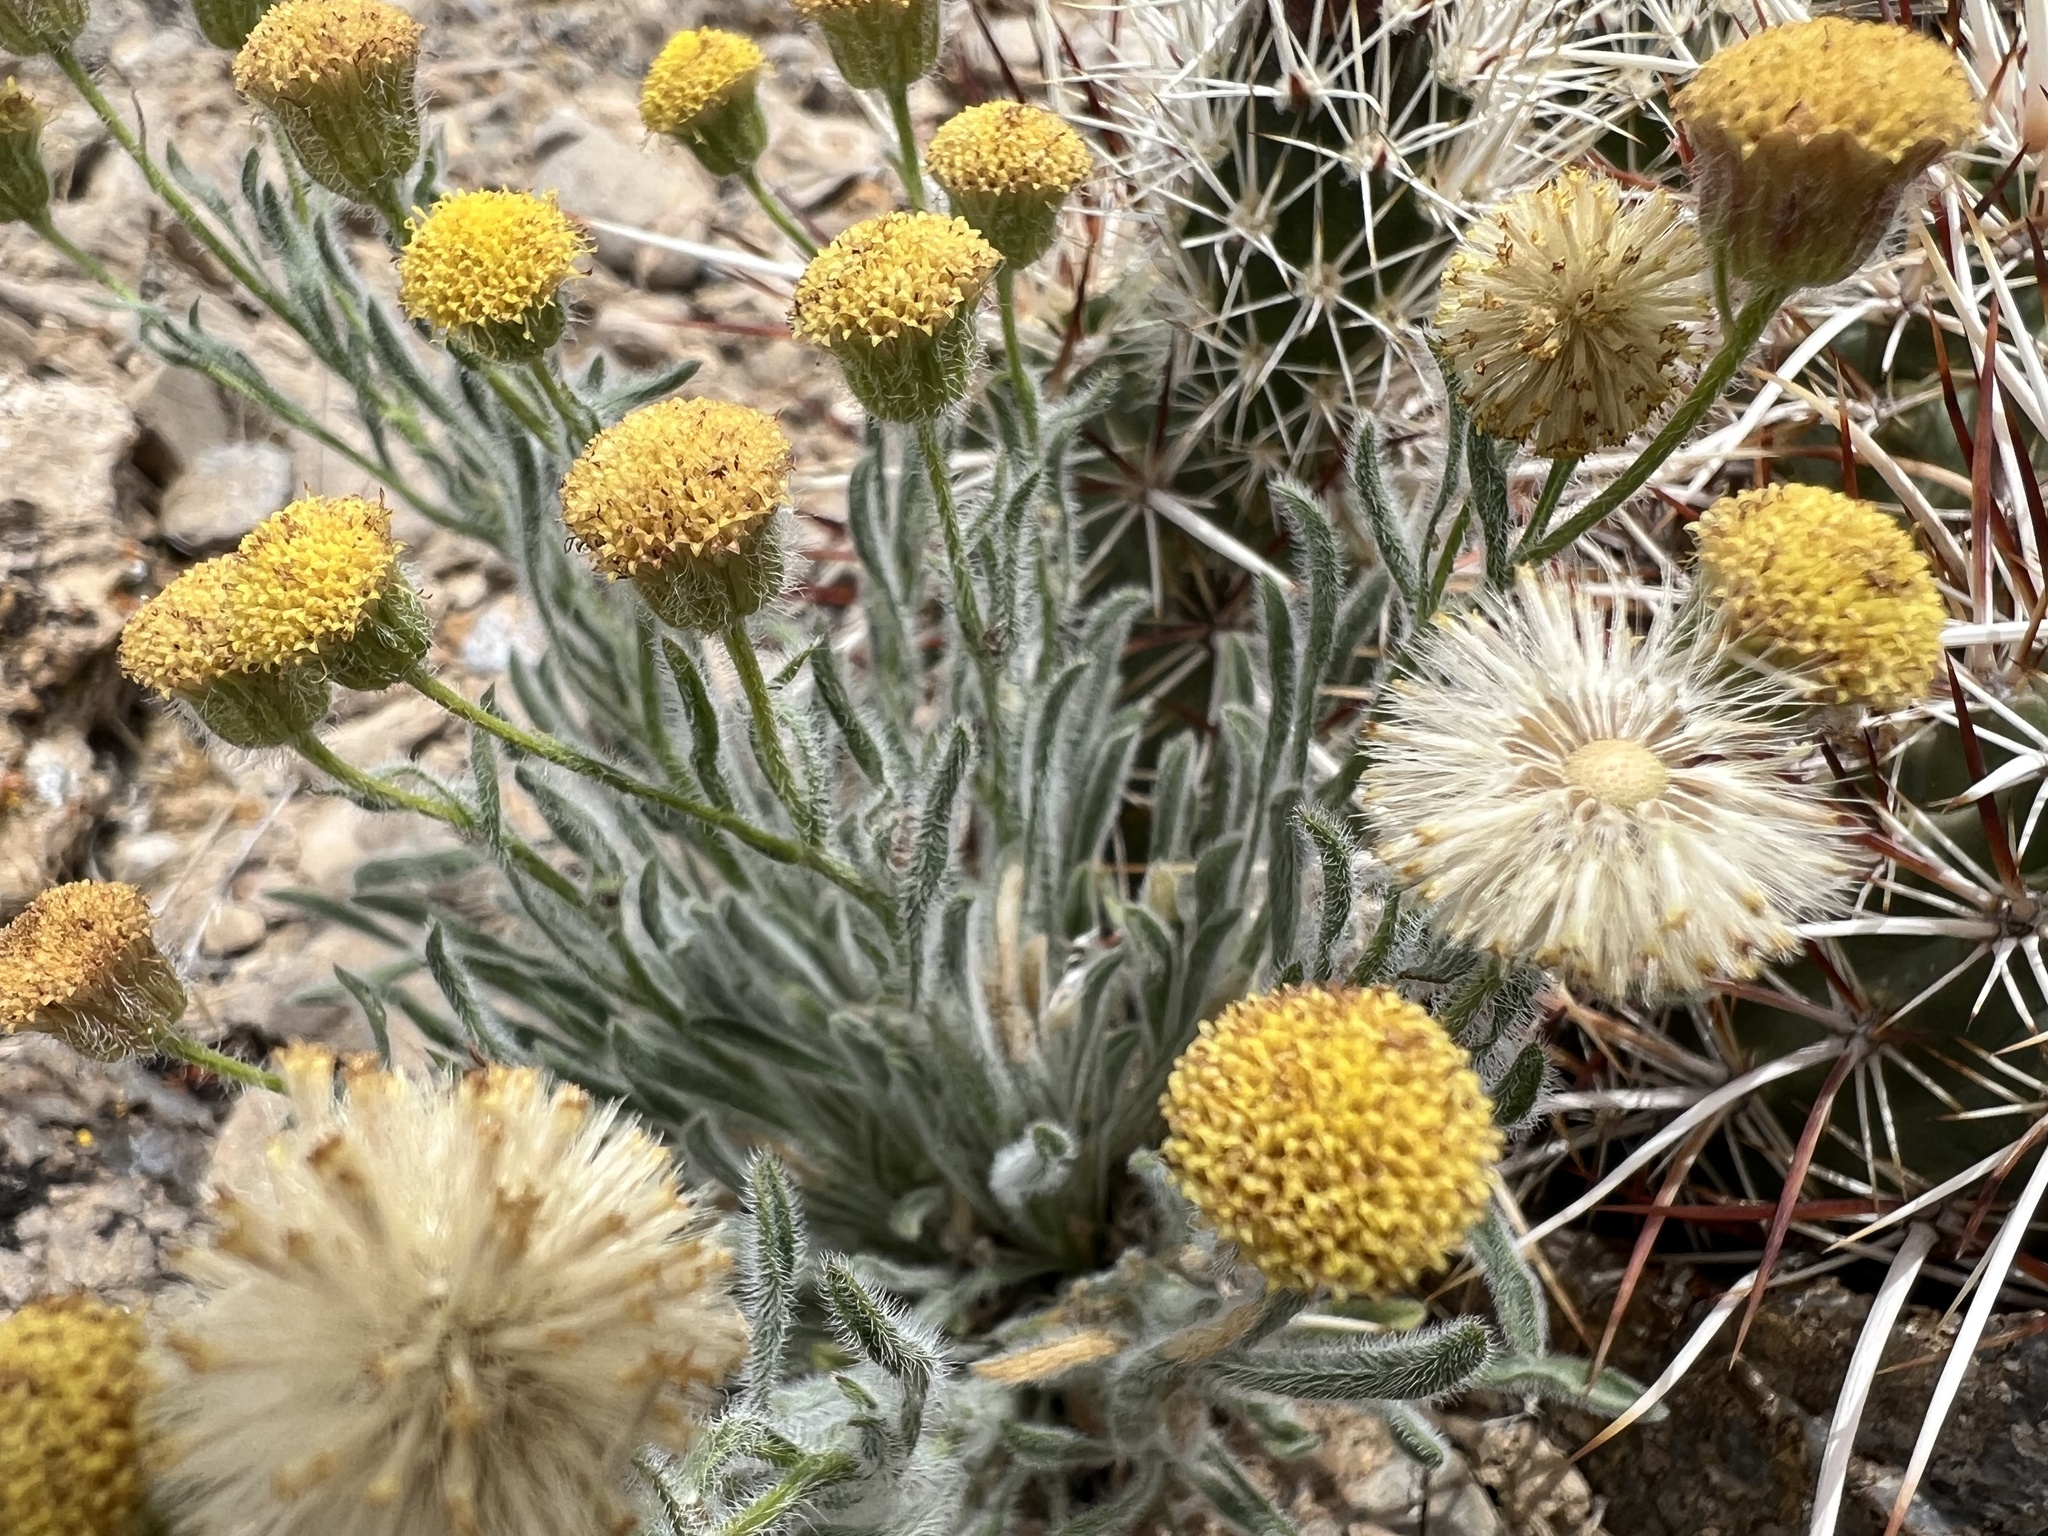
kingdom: Plantae
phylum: Tracheophyta
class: Magnoliopsida
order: Asterales
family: Asteraceae
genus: Erigeron
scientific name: Erigeron aphanactis
